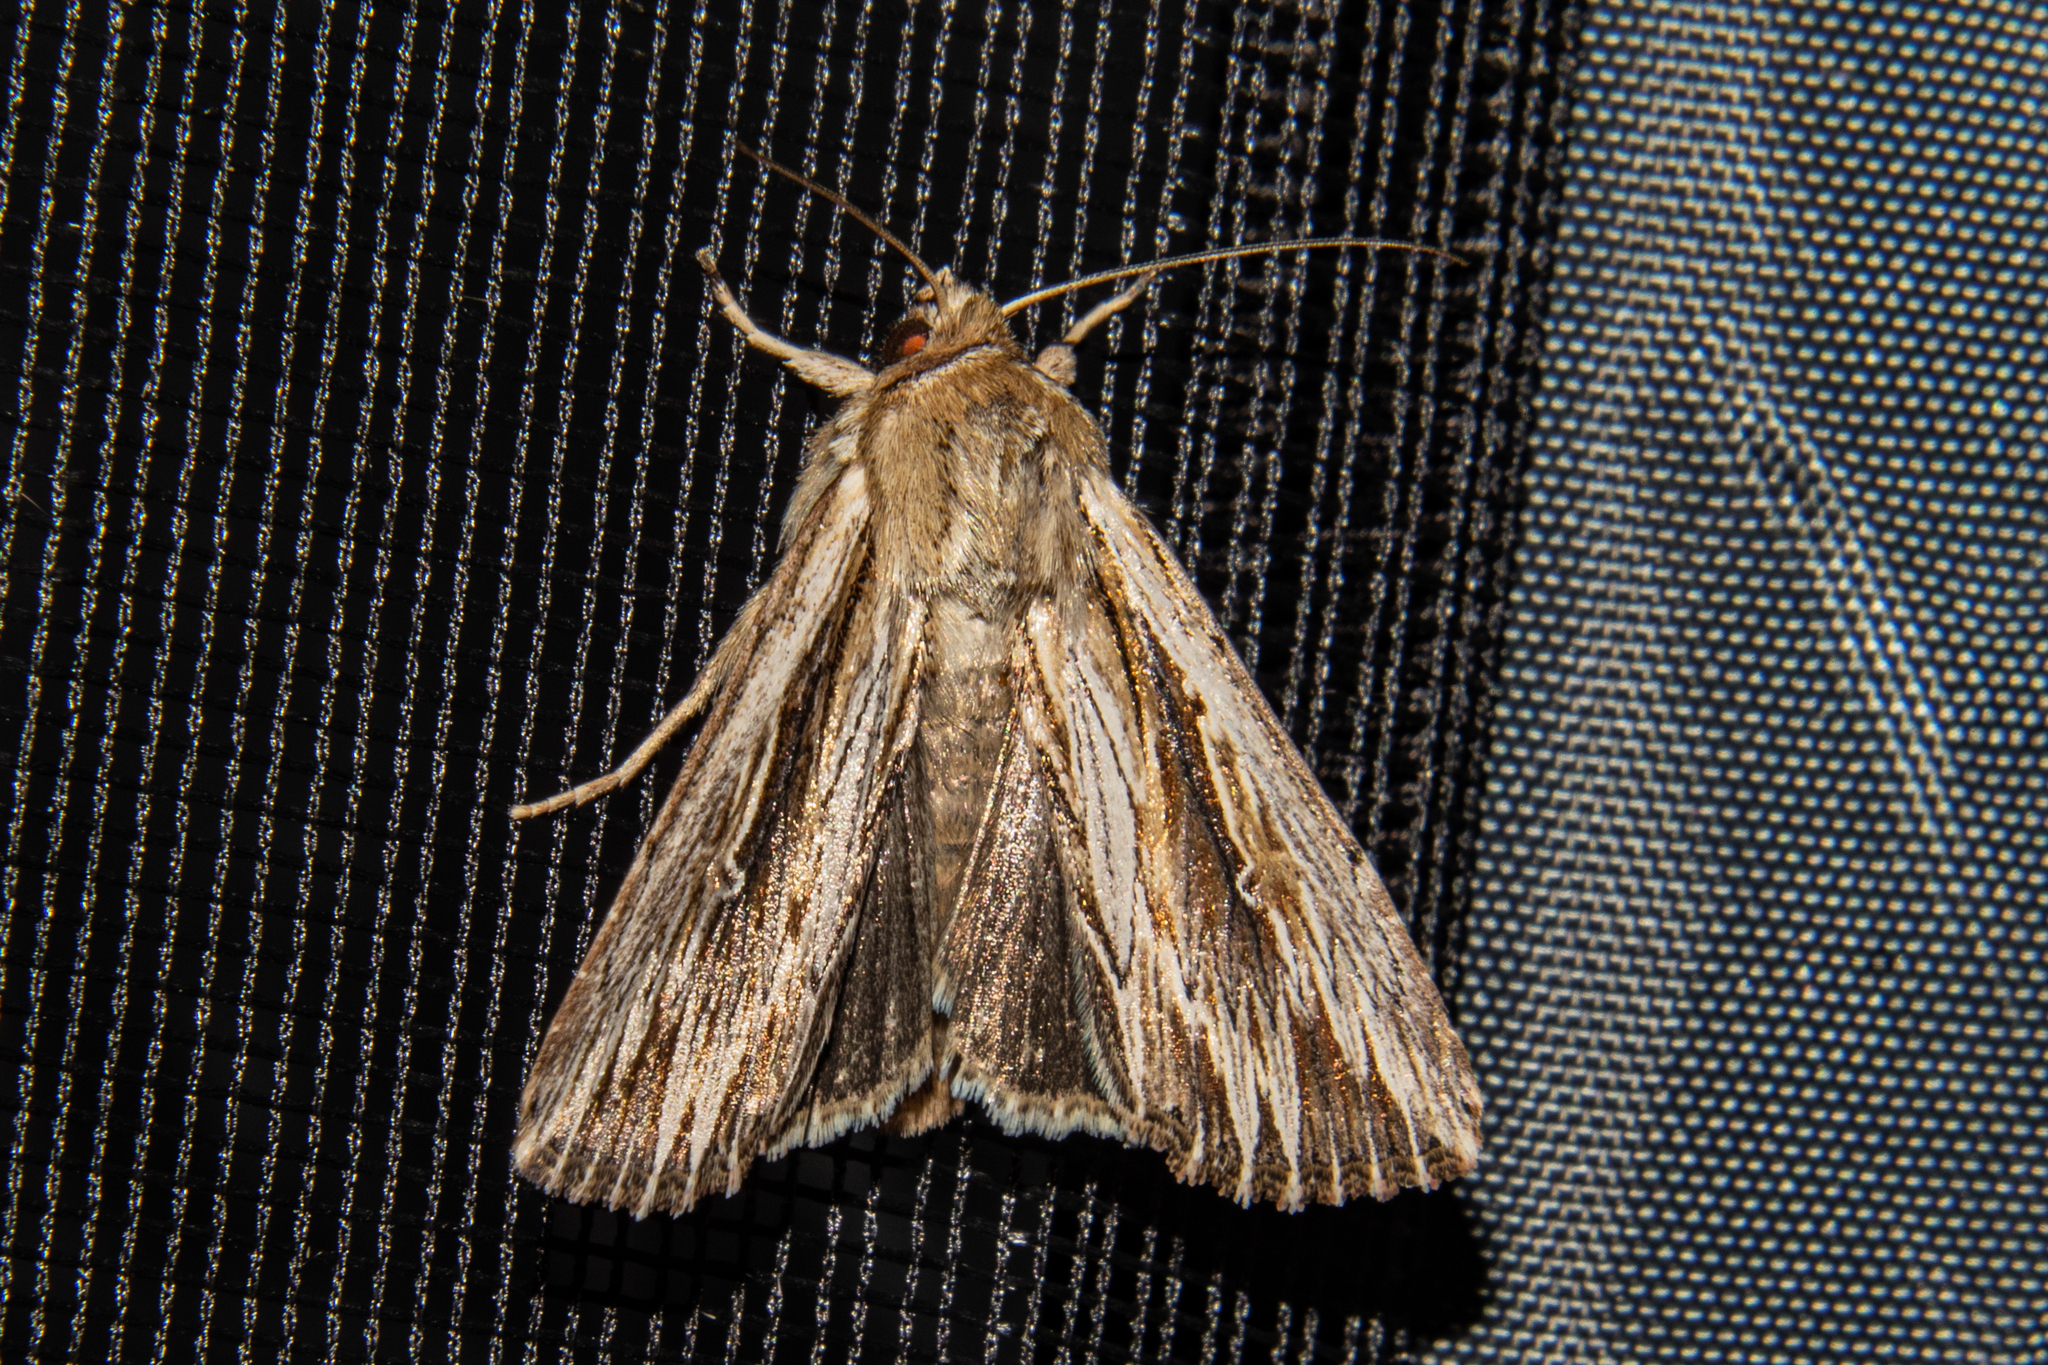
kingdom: Animalia
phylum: Arthropoda
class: Insecta
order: Lepidoptera
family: Noctuidae
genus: Persectania
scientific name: Persectania aversa
